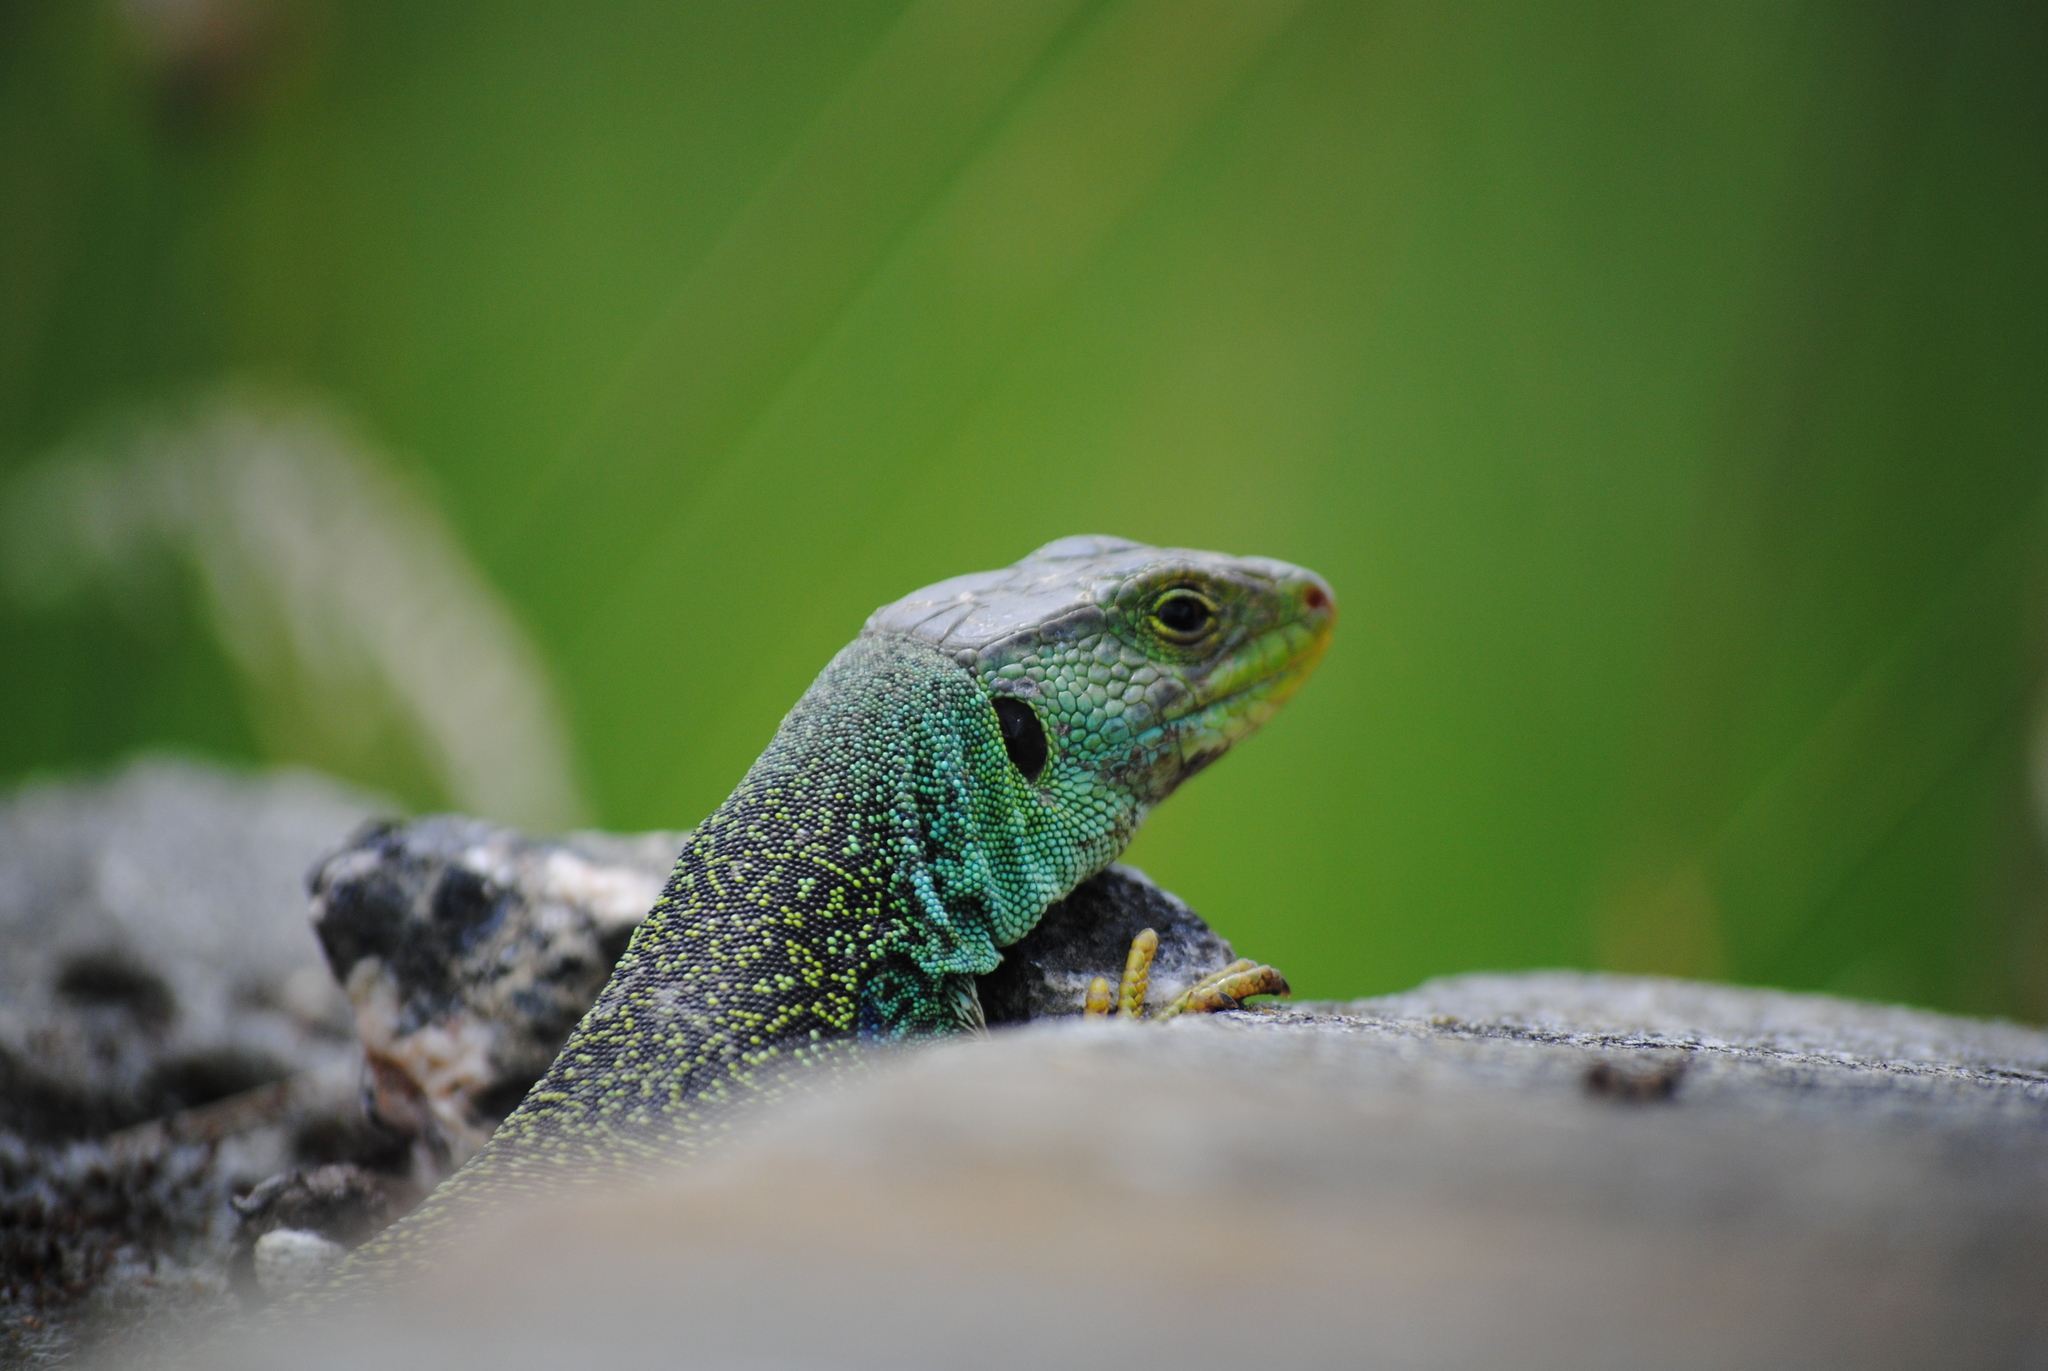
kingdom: Animalia
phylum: Chordata
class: Squamata
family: Lacertidae
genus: Timon
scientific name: Timon lepidus
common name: Ocellated lizard
